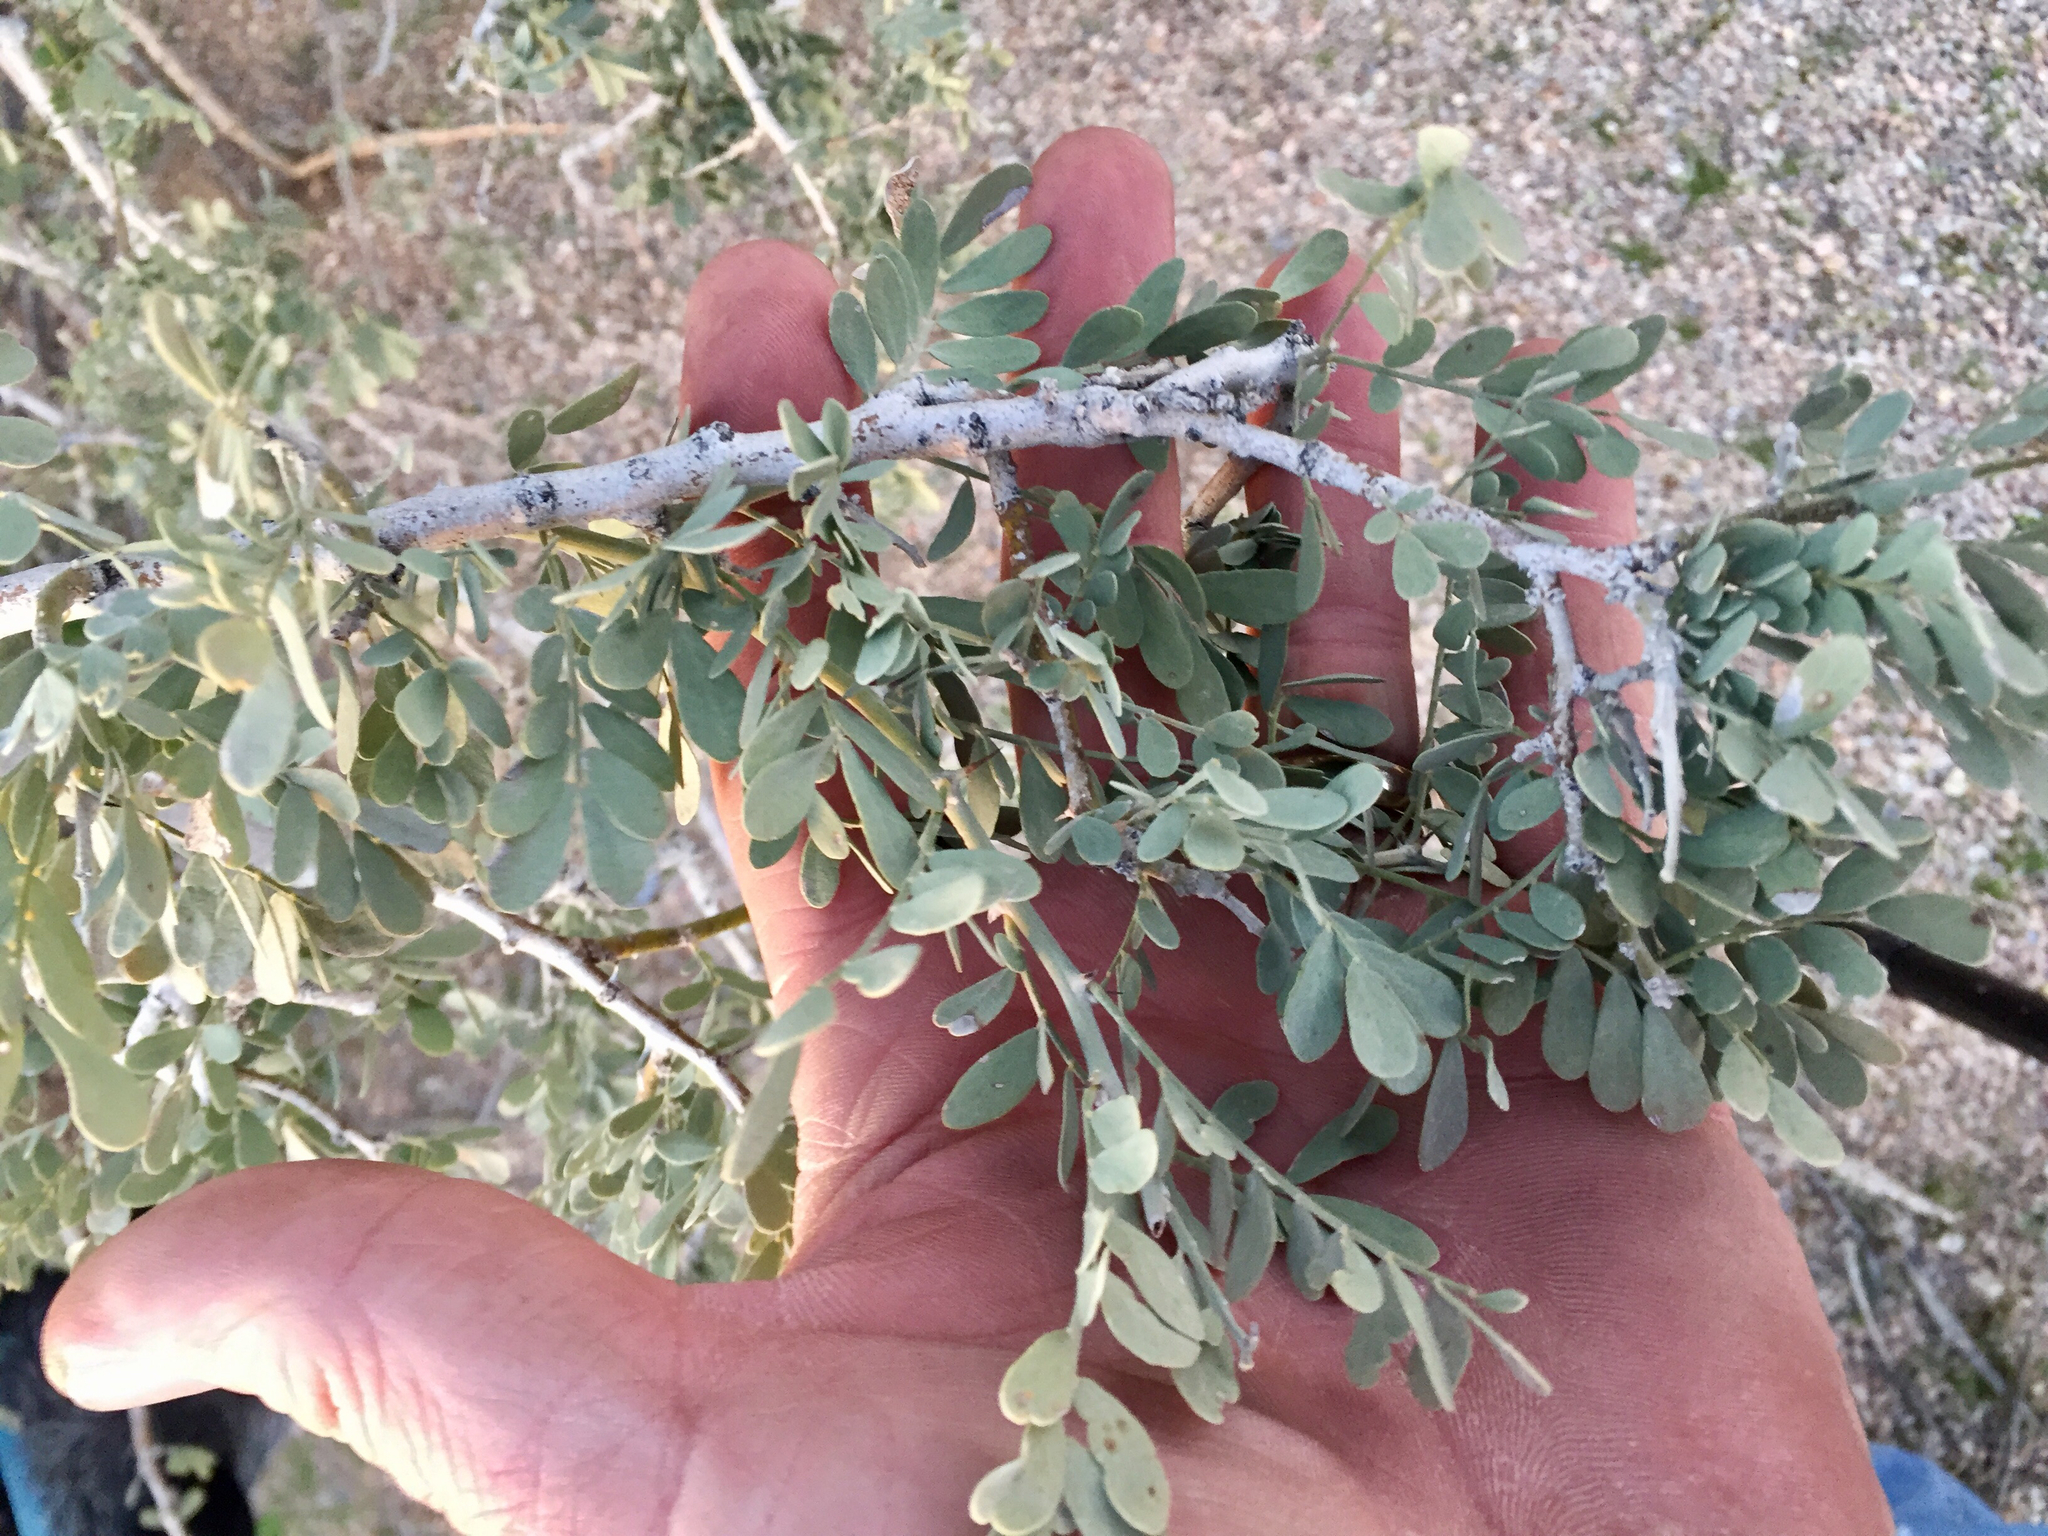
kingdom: Plantae
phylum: Tracheophyta
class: Magnoliopsida
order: Fabales
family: Fabaceae
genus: Olneya
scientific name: Olneya tesota
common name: Desert ironwood
